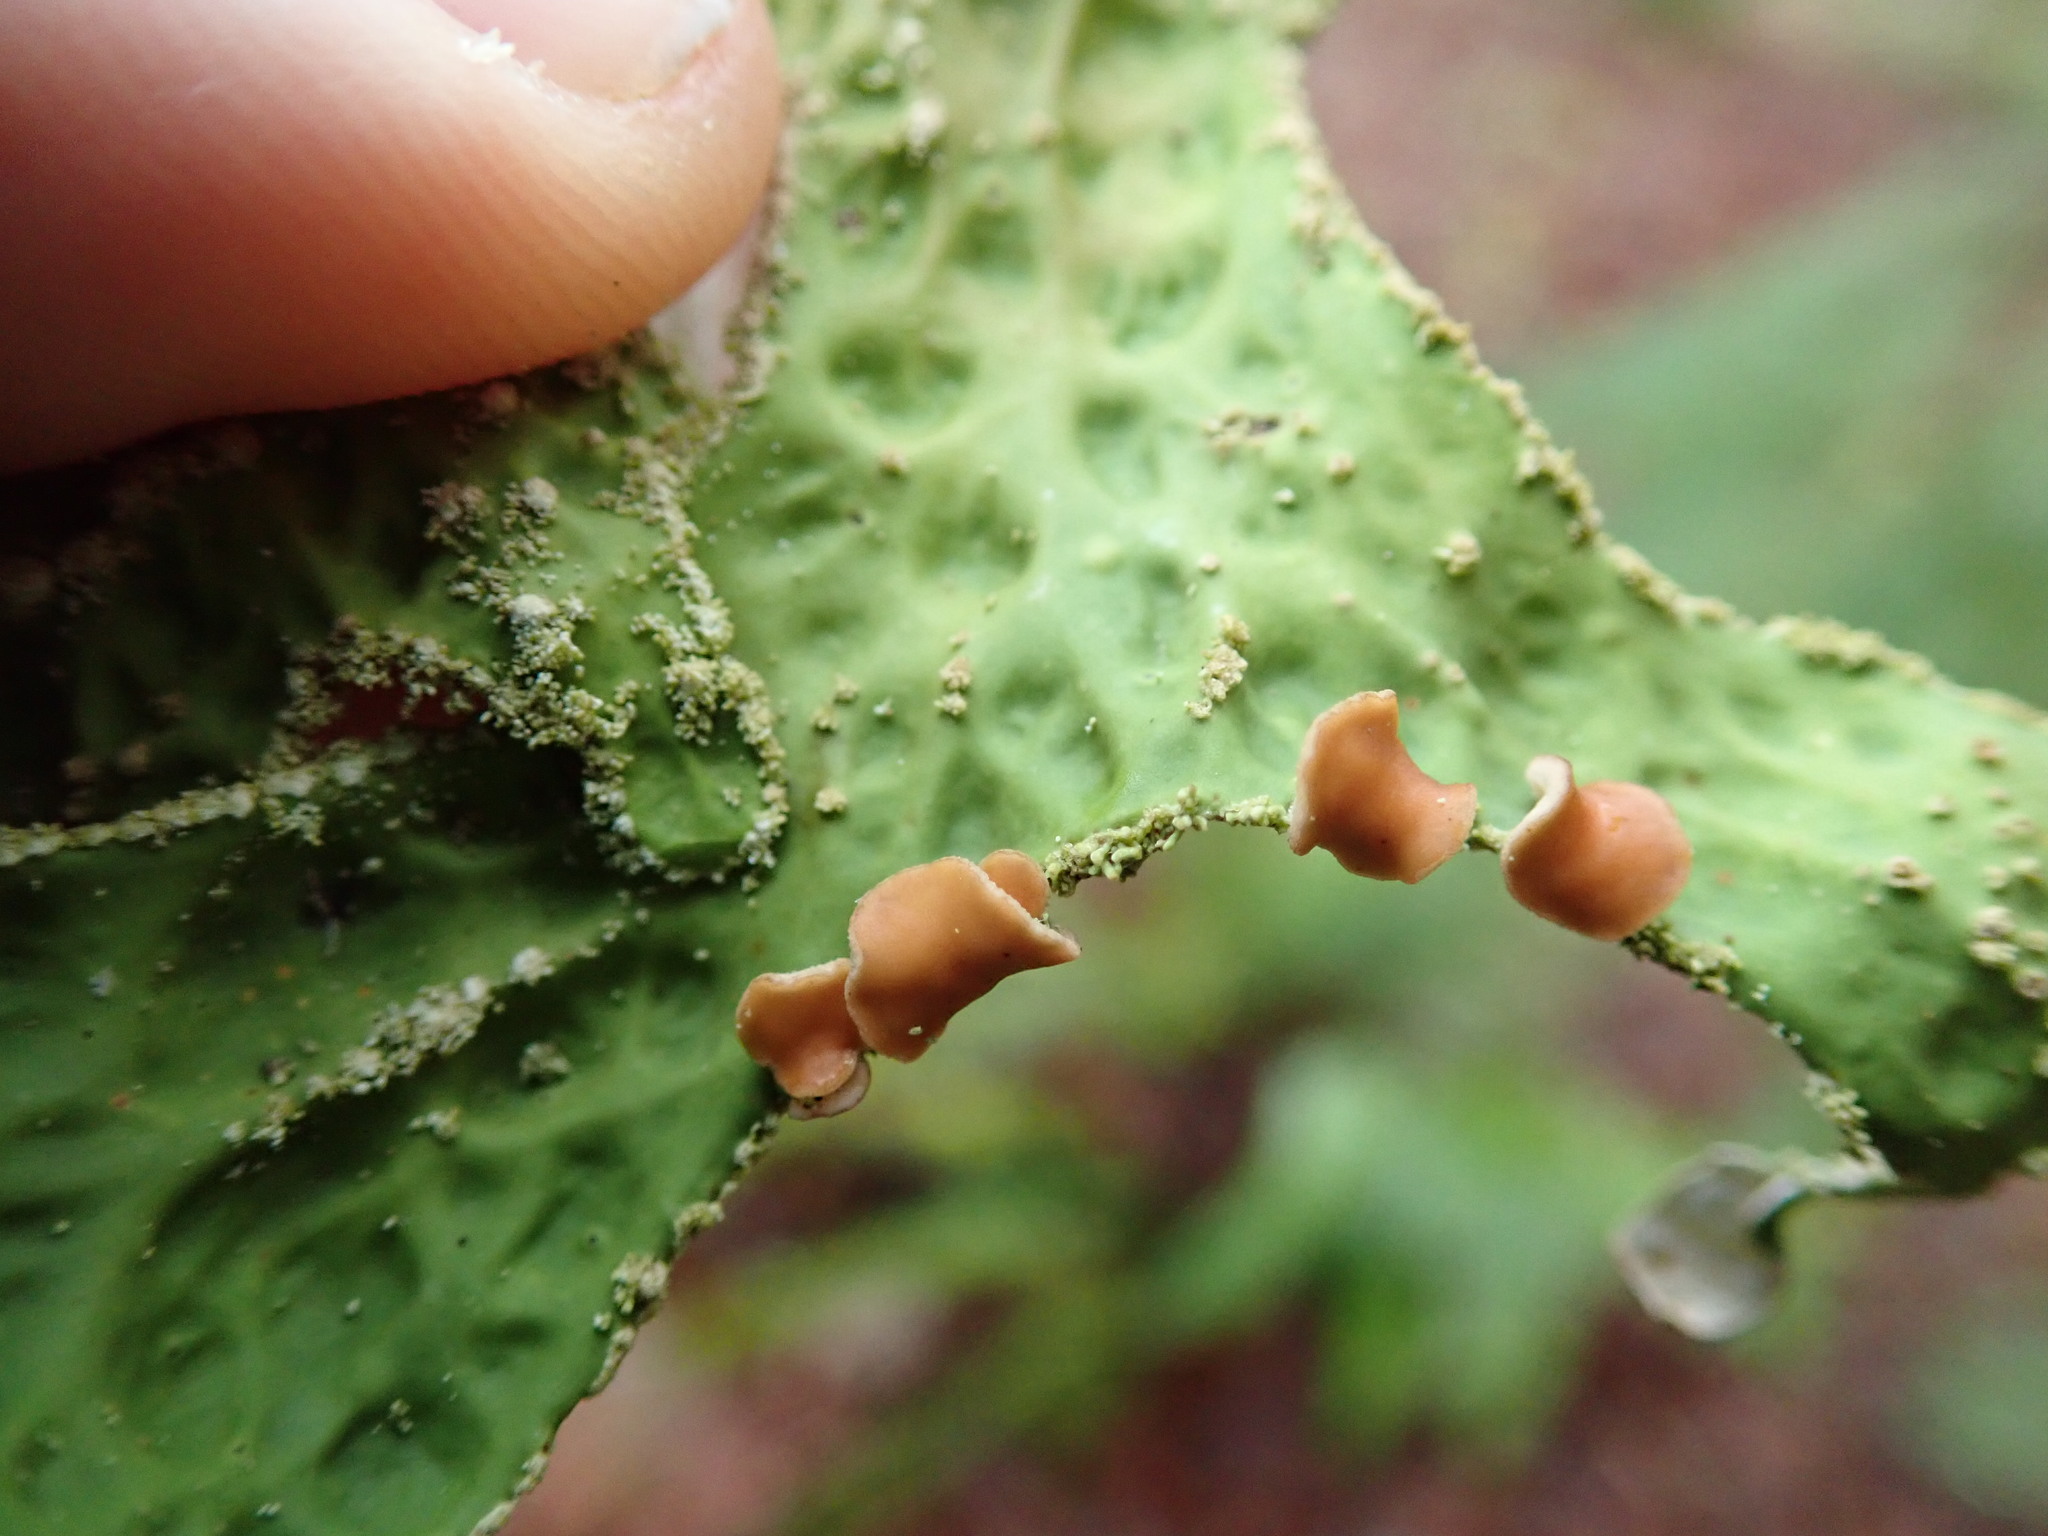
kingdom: Fungi
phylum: Ascomycota
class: Lecanoromycetes
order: Peltigerales
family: Lobariaceae
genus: Lobaria
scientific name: Lobaria pulmonaria
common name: Lungwort
